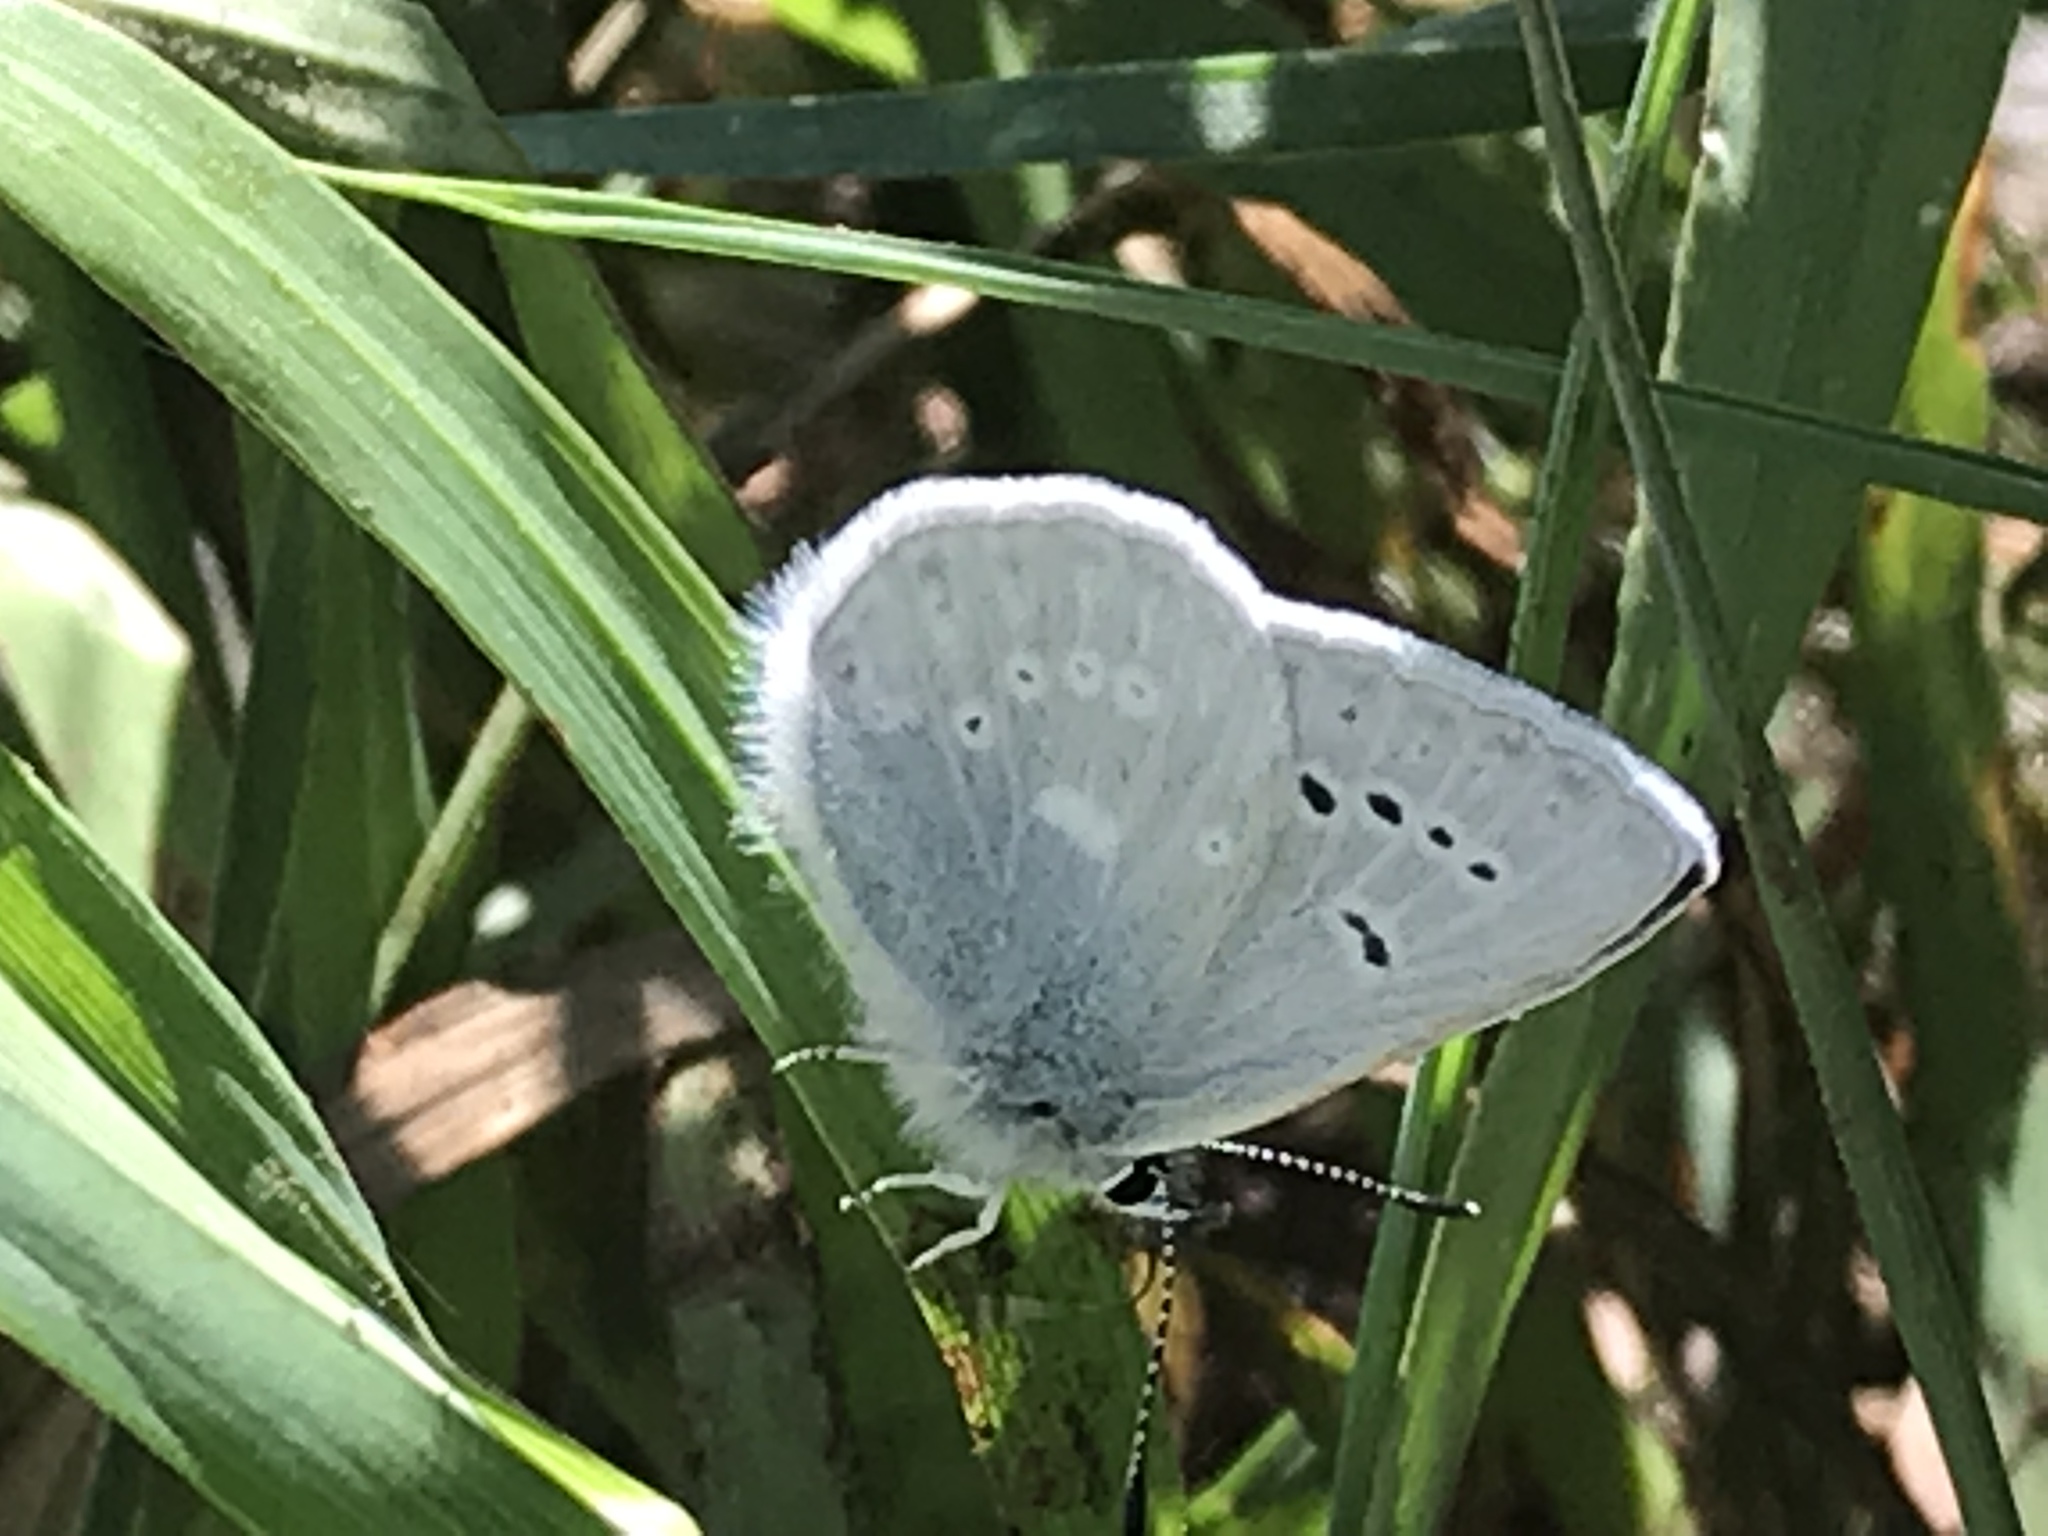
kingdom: Animalia
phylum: Arthropoda
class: Insecta
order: Lepidoptera
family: Lycaenidae
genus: Icaricia
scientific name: Icaricia icarioides
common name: Boisduval's blue
